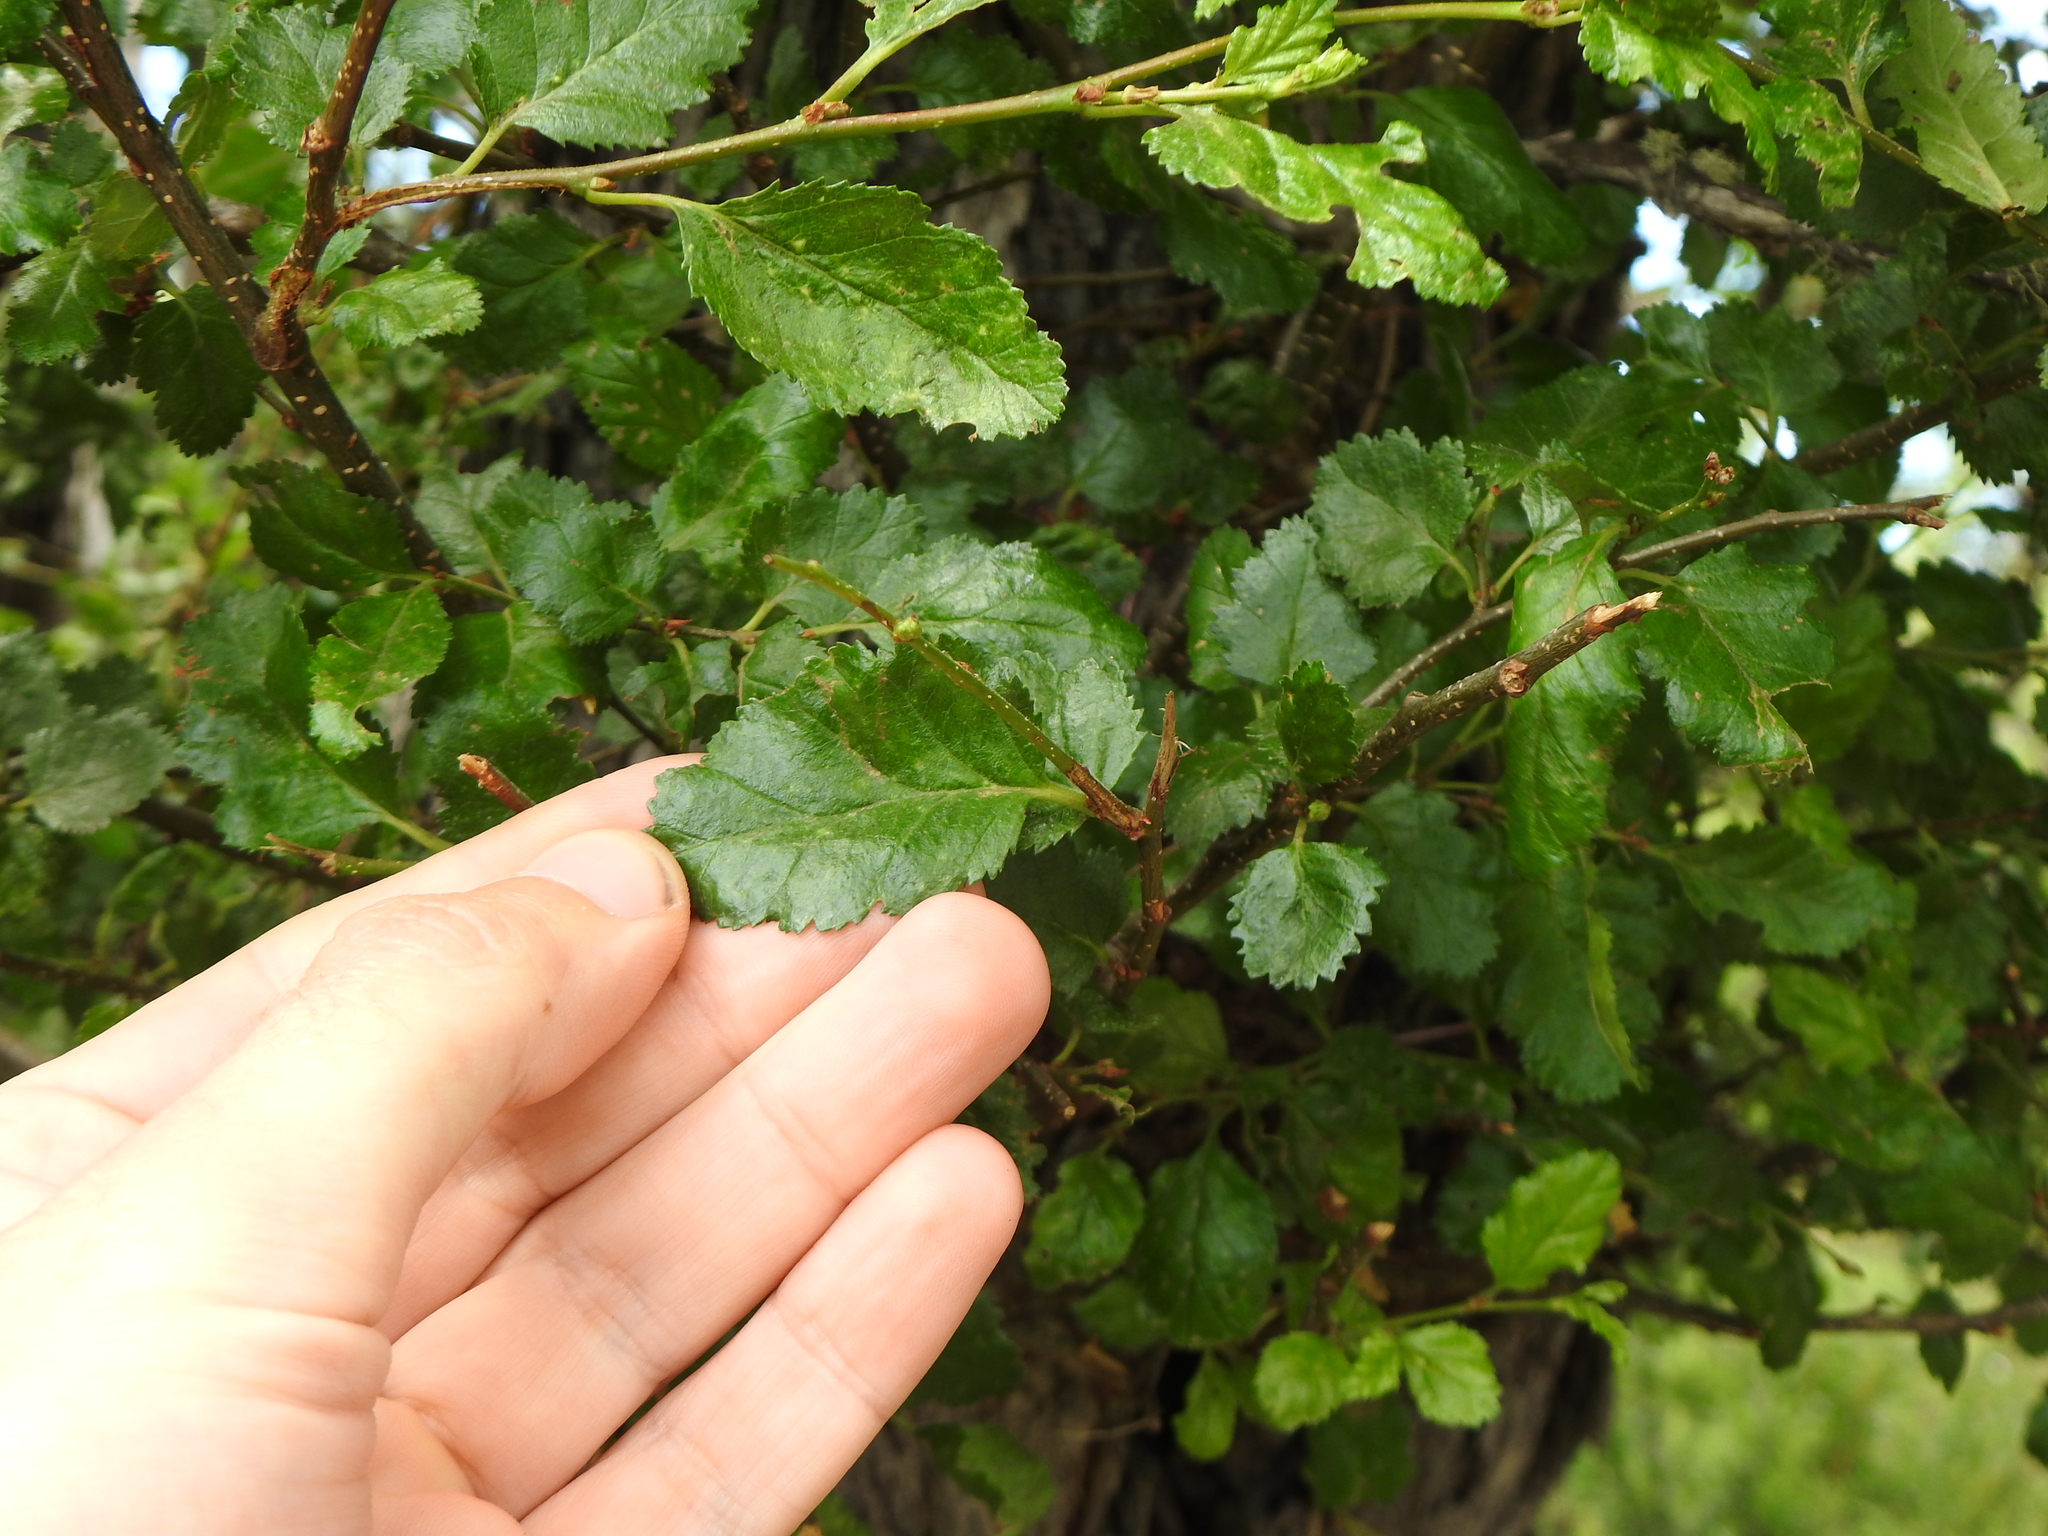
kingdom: Plantae
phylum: Tracheophyta
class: Magnoliopsida
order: Fagales
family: Nothofagaceae
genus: Nothofagus
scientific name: Nothofagus antarctica
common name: Antarctic beech
